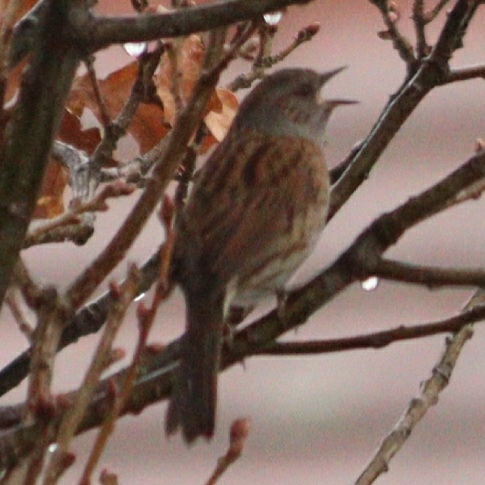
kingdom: Animalia
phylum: Chordata
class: Aves
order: Passeriformes
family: Prunellidae
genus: Prunella
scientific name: Prunella modularis
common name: Dunnock
